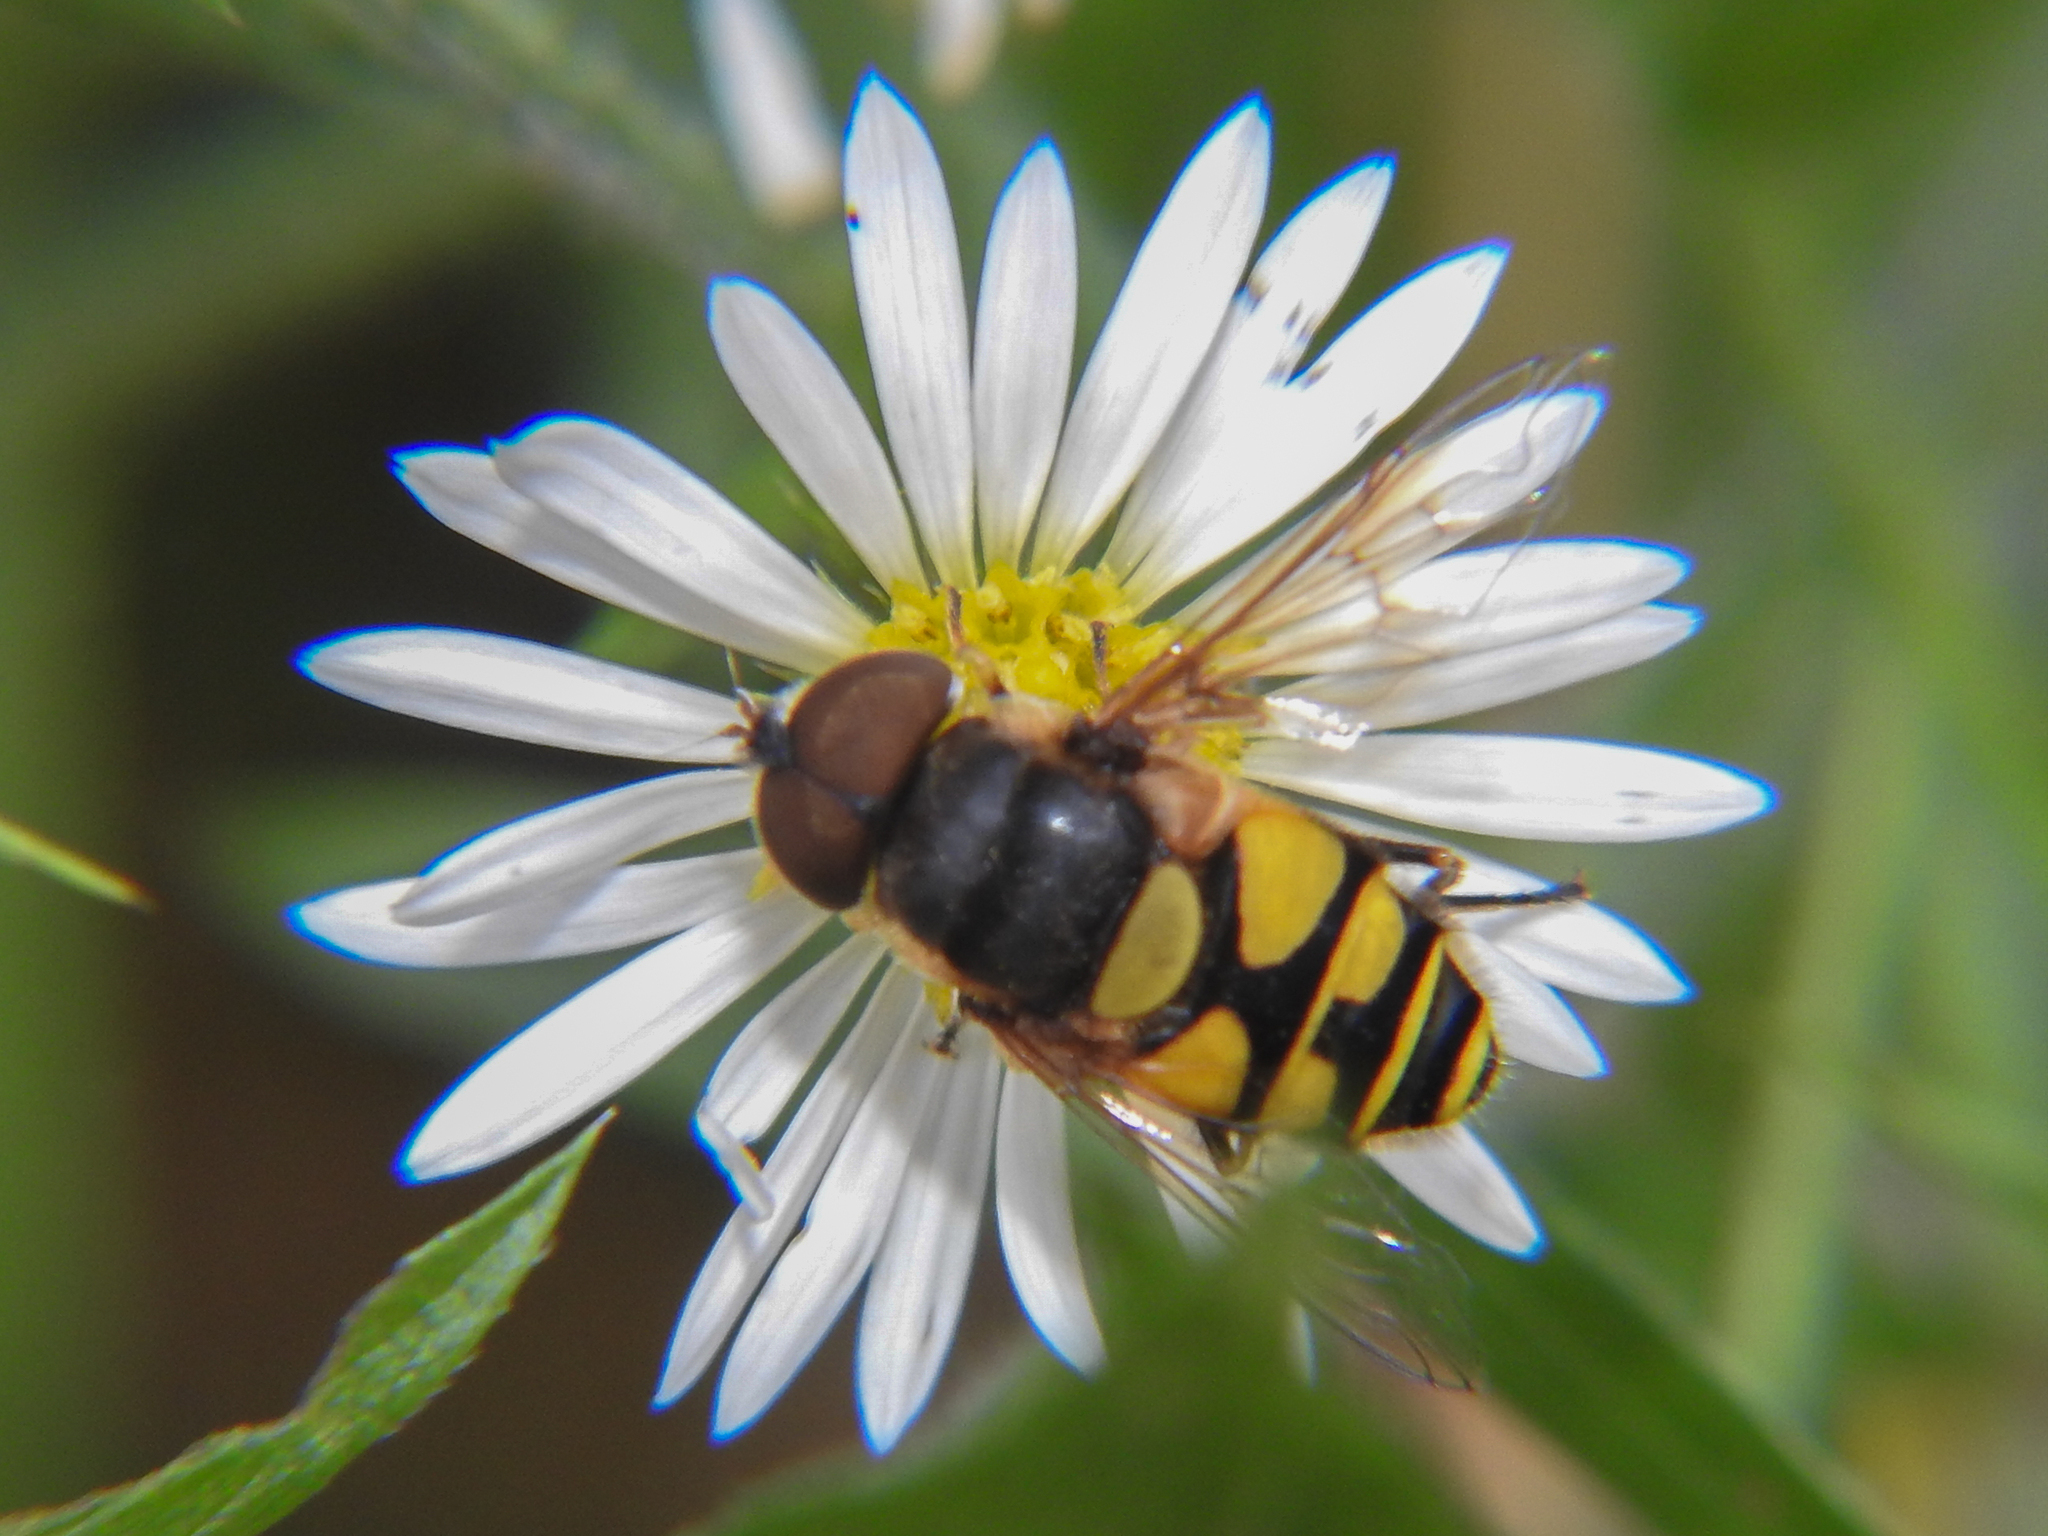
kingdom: Animalia
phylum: Arthropoda
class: Insecta
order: Diptera
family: Syrphidae
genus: Eristalis
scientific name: Eristalis transversa
